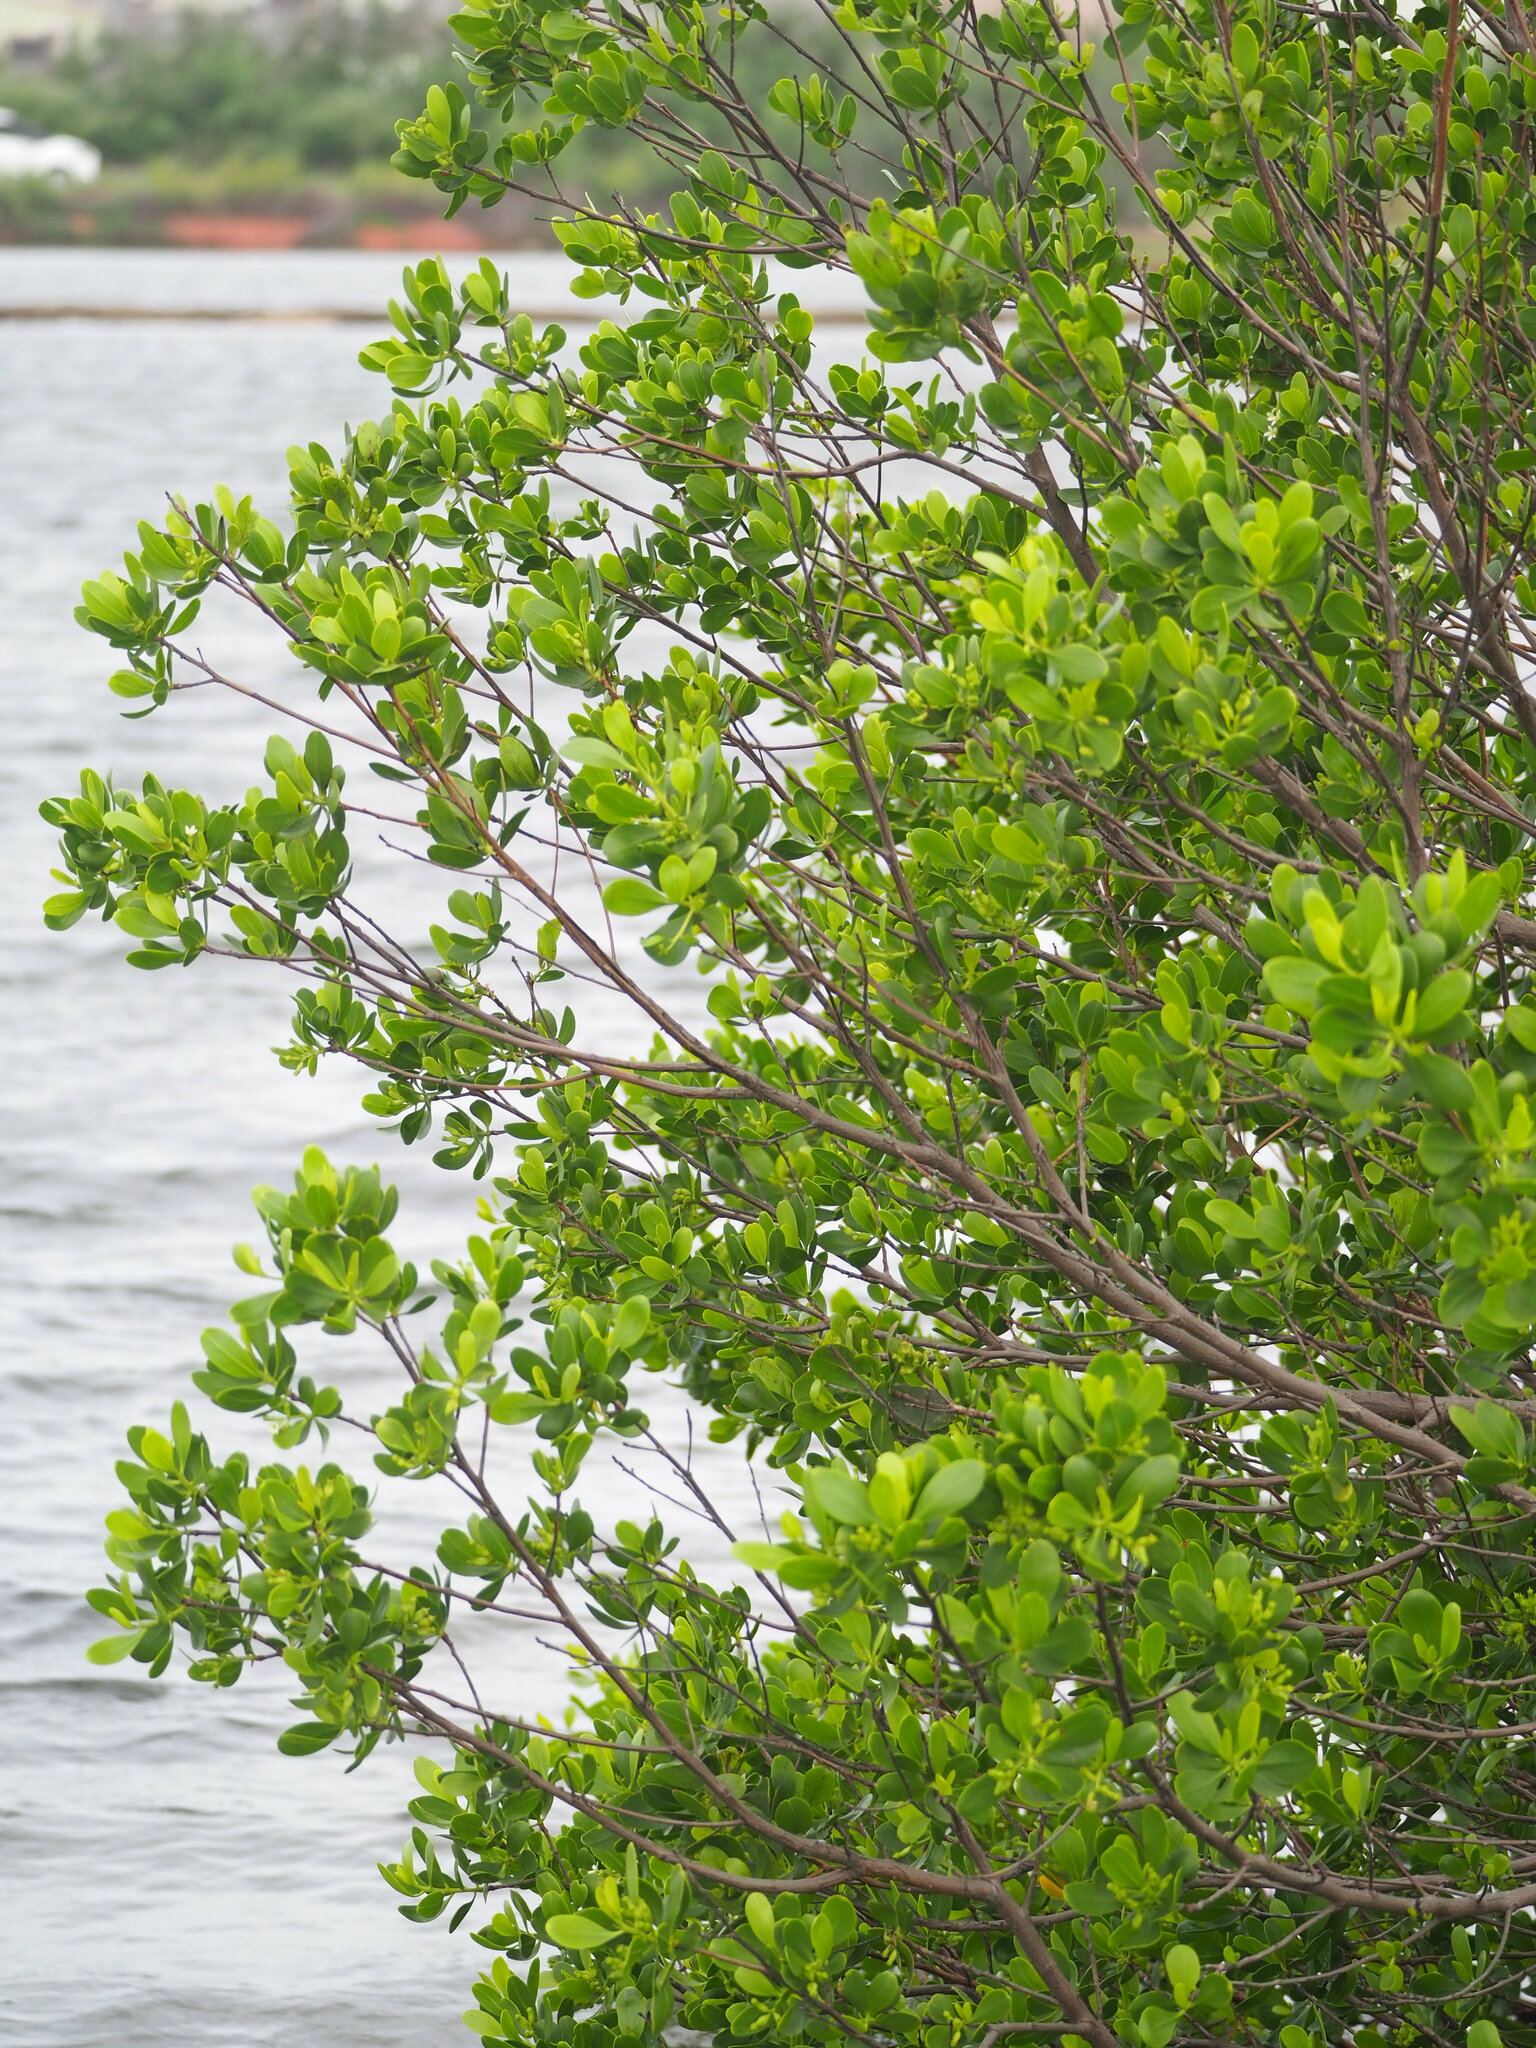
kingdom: Plantae
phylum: Tracheophyta
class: Magnoliopsida
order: Myrtales
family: Combretaceae
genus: Lumnitzera
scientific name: Lumnitzera racemosa
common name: White-flowered black mangrove
